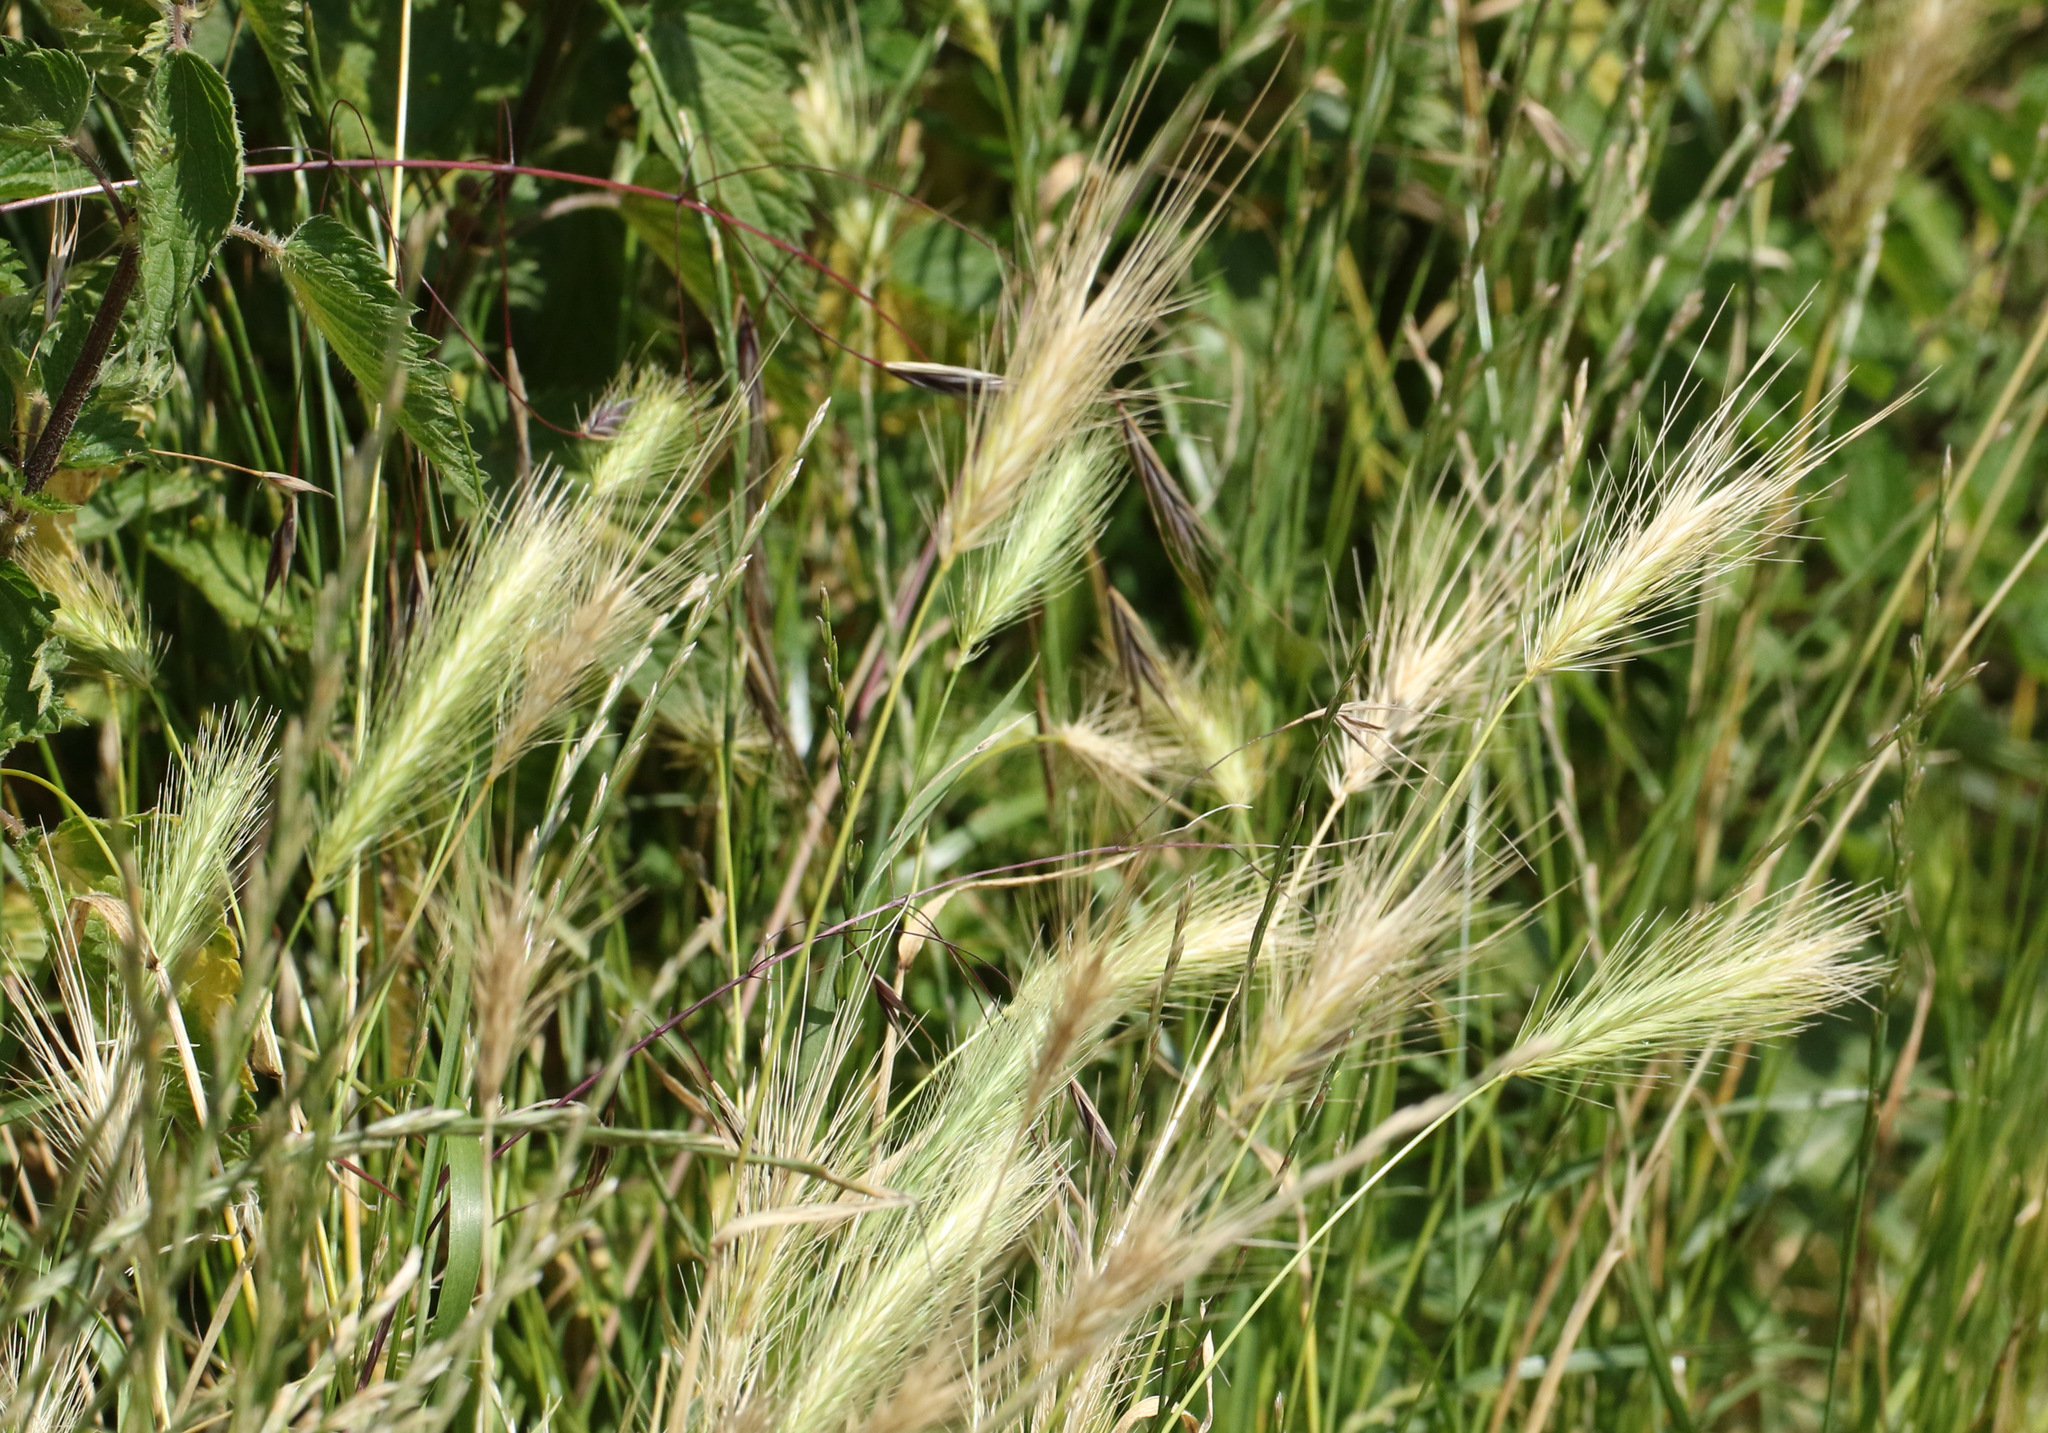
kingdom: Plantae
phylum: Tracheophyta
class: Liliopsida
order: Poales
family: Poaceae
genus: Hordeum
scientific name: Hordeum murinum
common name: Wall barley
